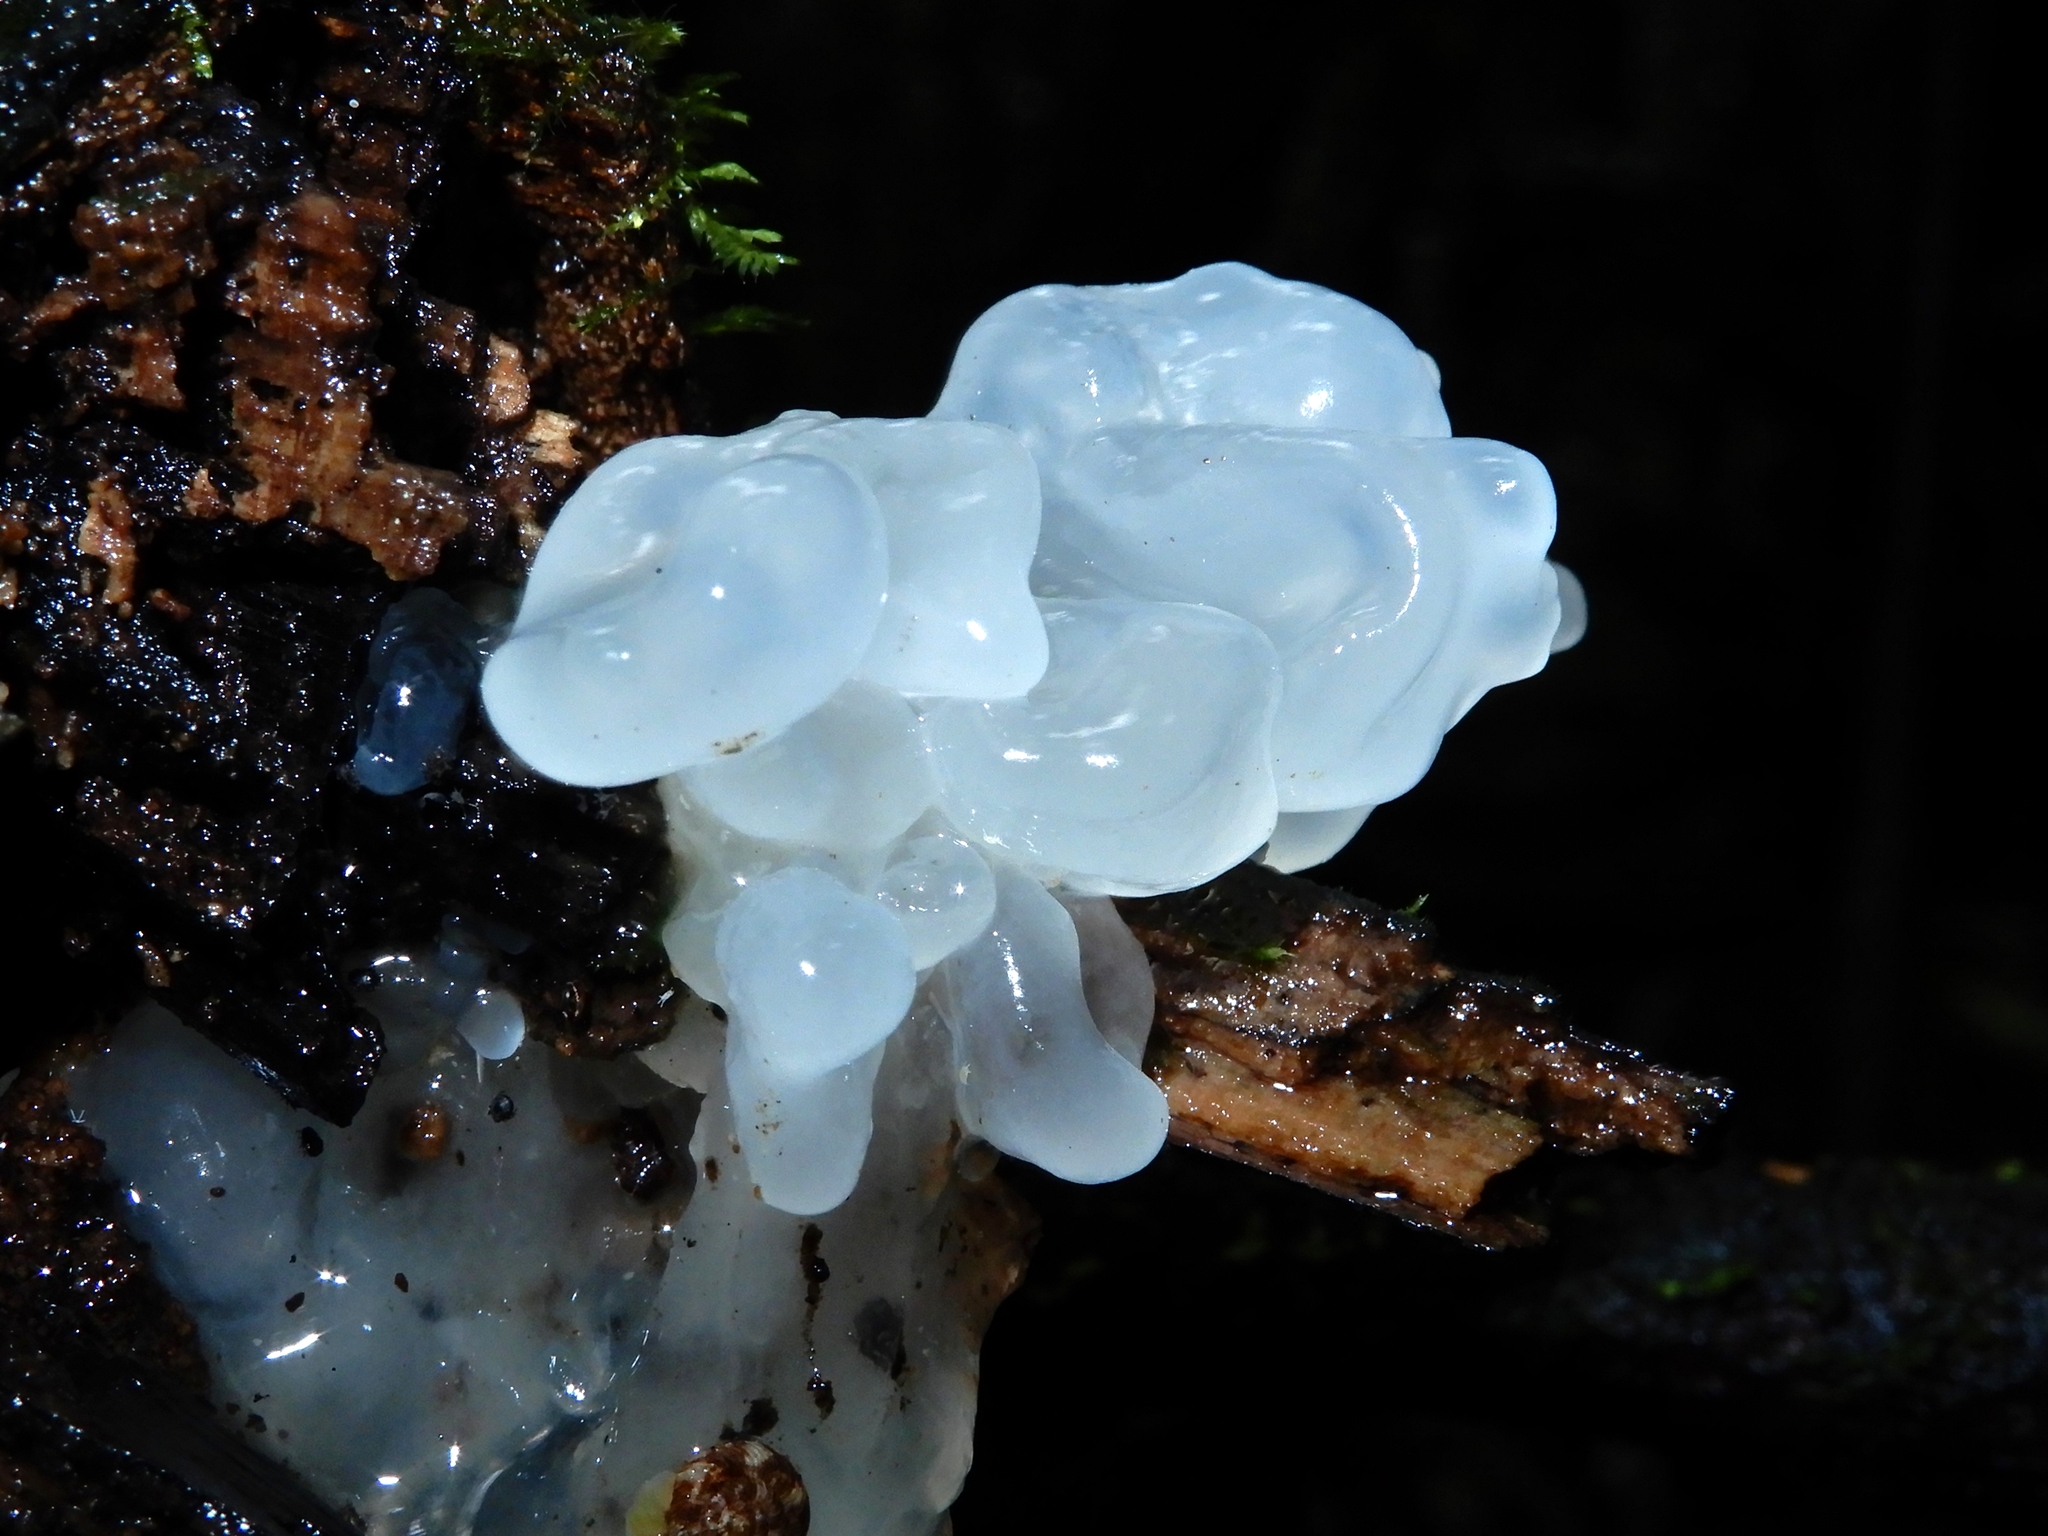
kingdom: Fungi
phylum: Basidiomycota
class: Tremellomycetes
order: Tremellales
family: Tremellaceae
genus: Tremella
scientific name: Tremella fuciformis
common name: Snow fungus
